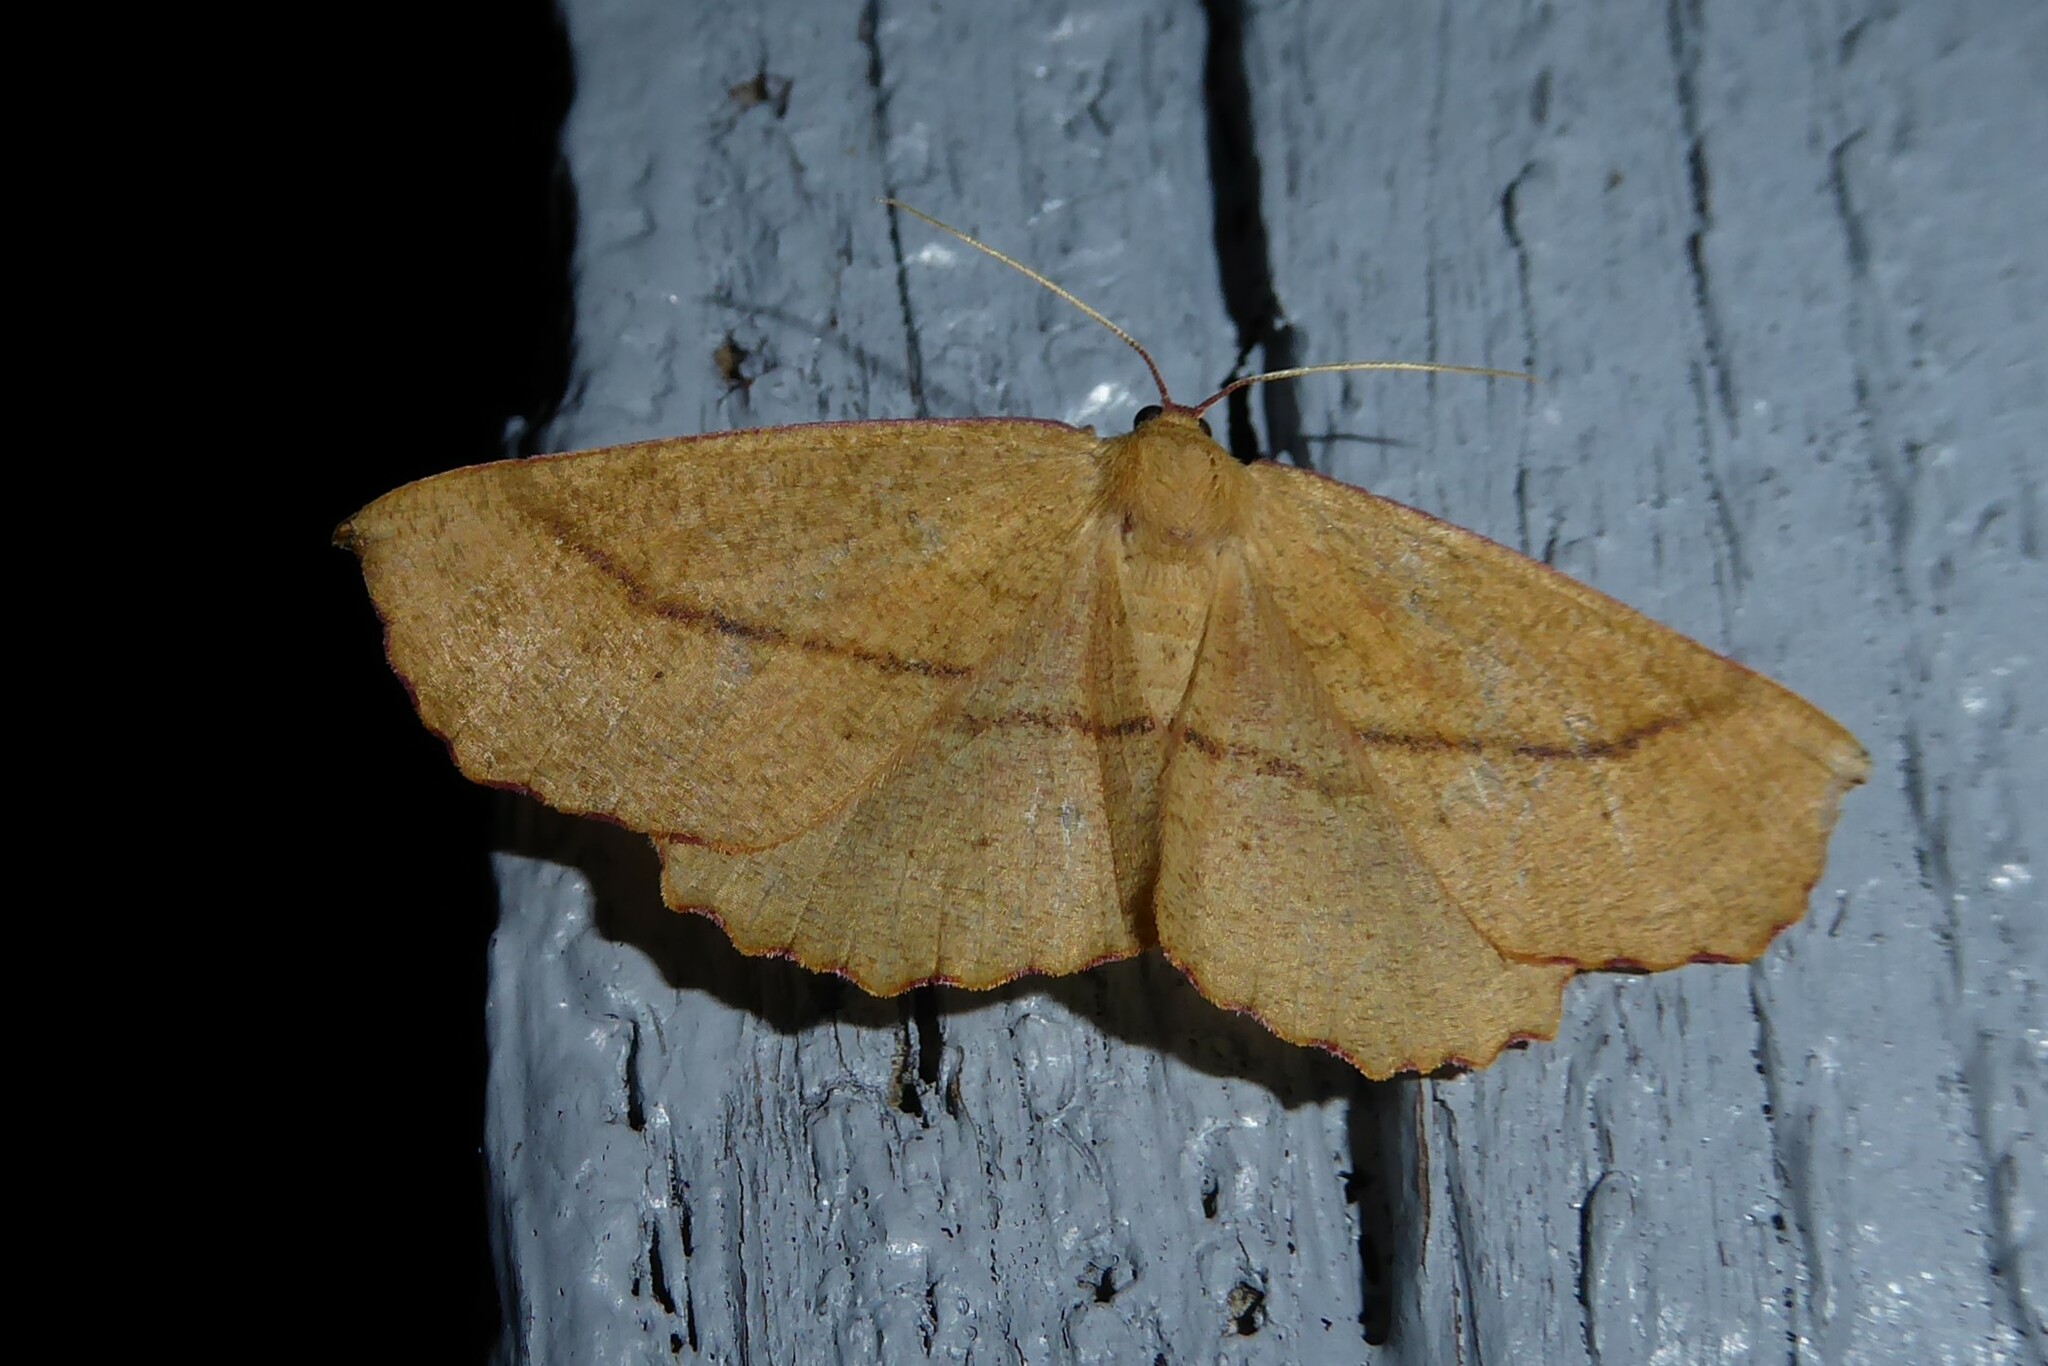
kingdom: Animalia
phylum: Arthropoda
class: Insecta
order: Lepidoptera
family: Geometridae
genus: Xyridacma
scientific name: Xyridacma alectoraria
